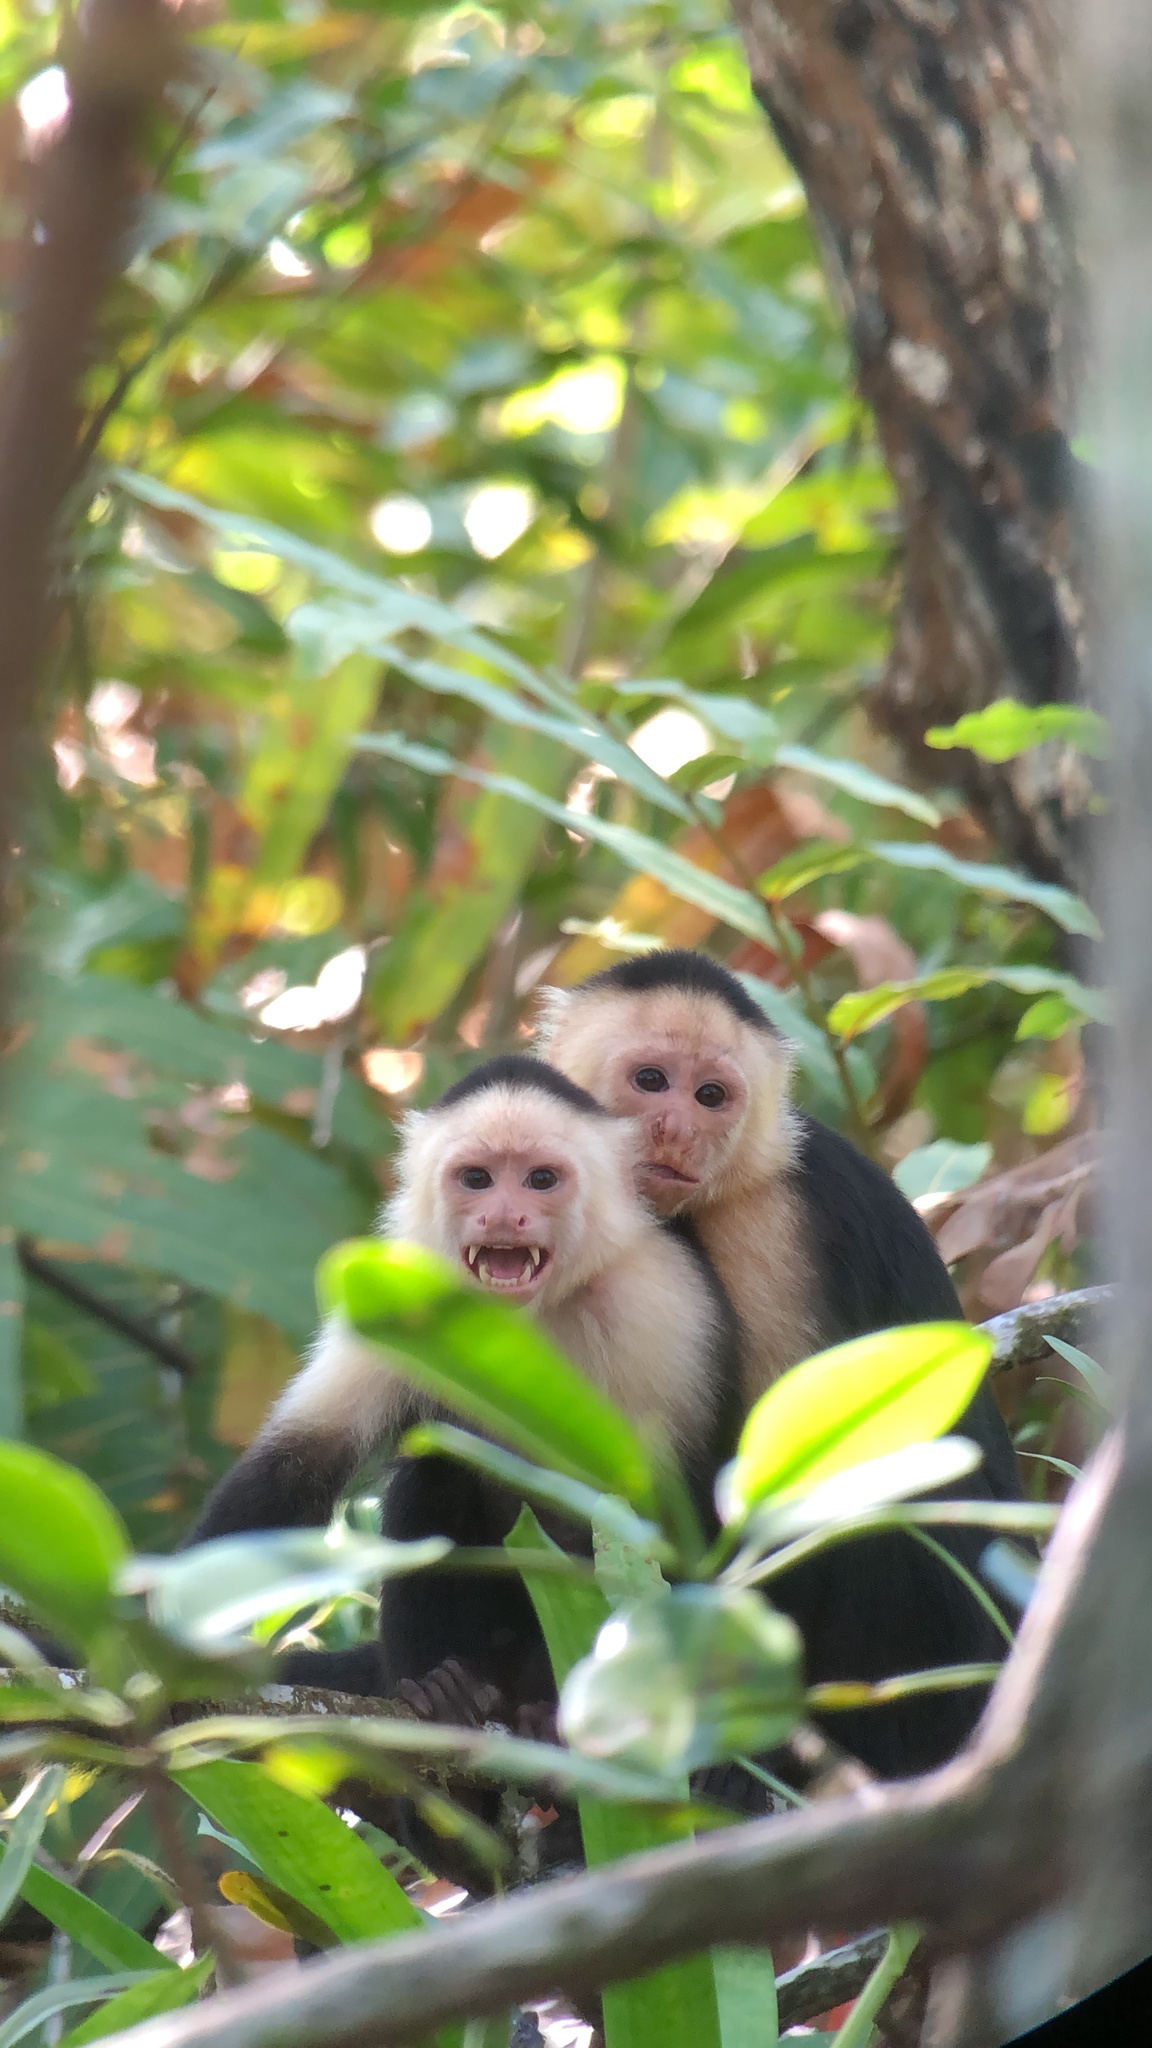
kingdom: Animalia
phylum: Chordata
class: Mammalia
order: Primates
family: Cebidae
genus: Cebus
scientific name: Cebus imitator
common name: Panamanian white-faced capuchin
